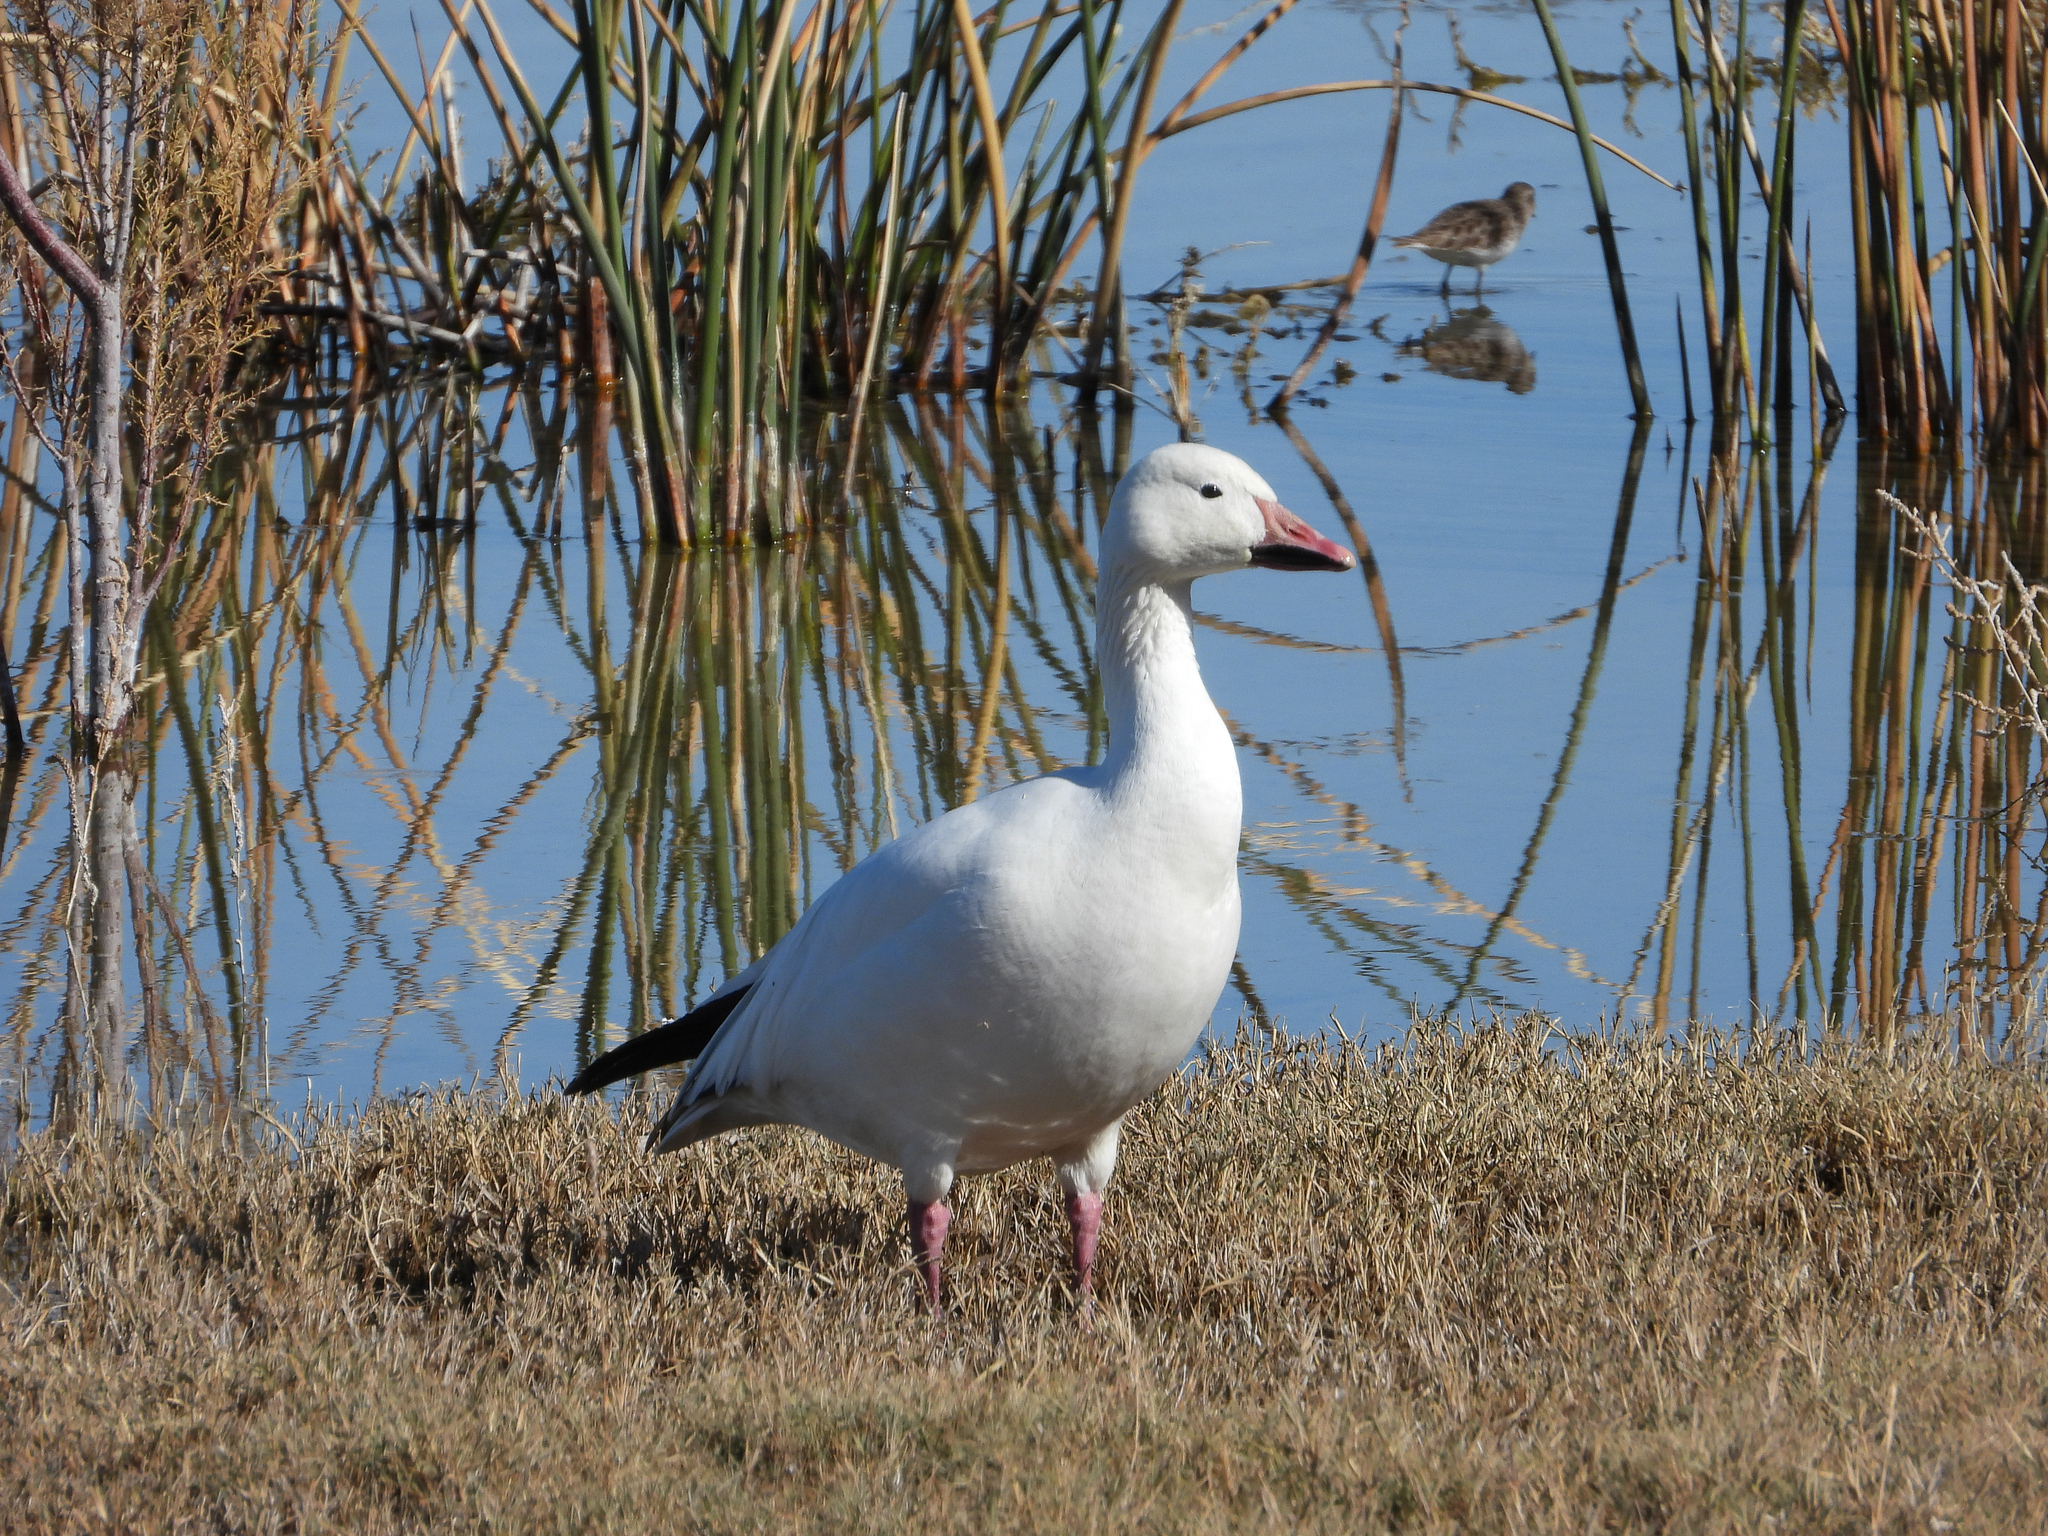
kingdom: Animalia
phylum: Chordata
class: Aves
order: Anseriformes
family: Anatidae
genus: Anser
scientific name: Anser caerulescens
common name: Snow goose
